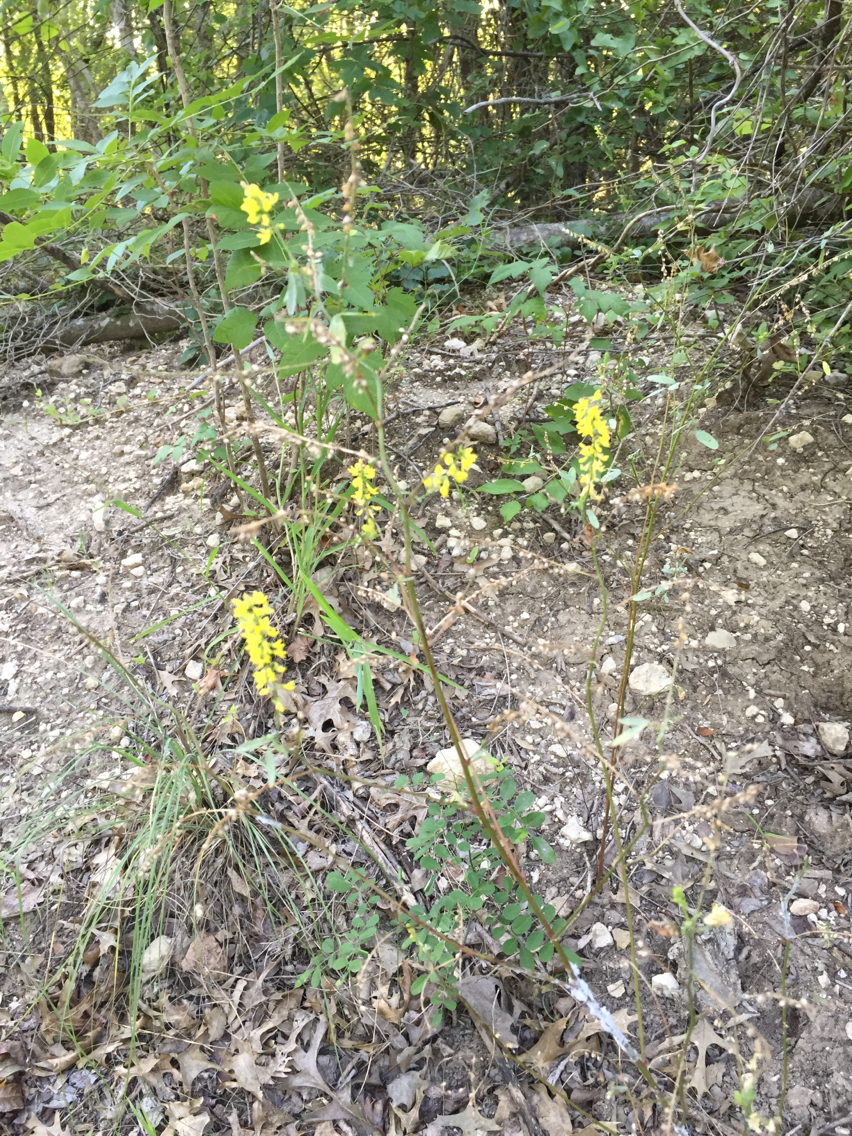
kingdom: Plantae
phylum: Tracheophyta
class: Magnoliopsida
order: Fabales
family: Fabaceae
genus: Melilotus
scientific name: Melilotus officinalis
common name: Sweetclover
